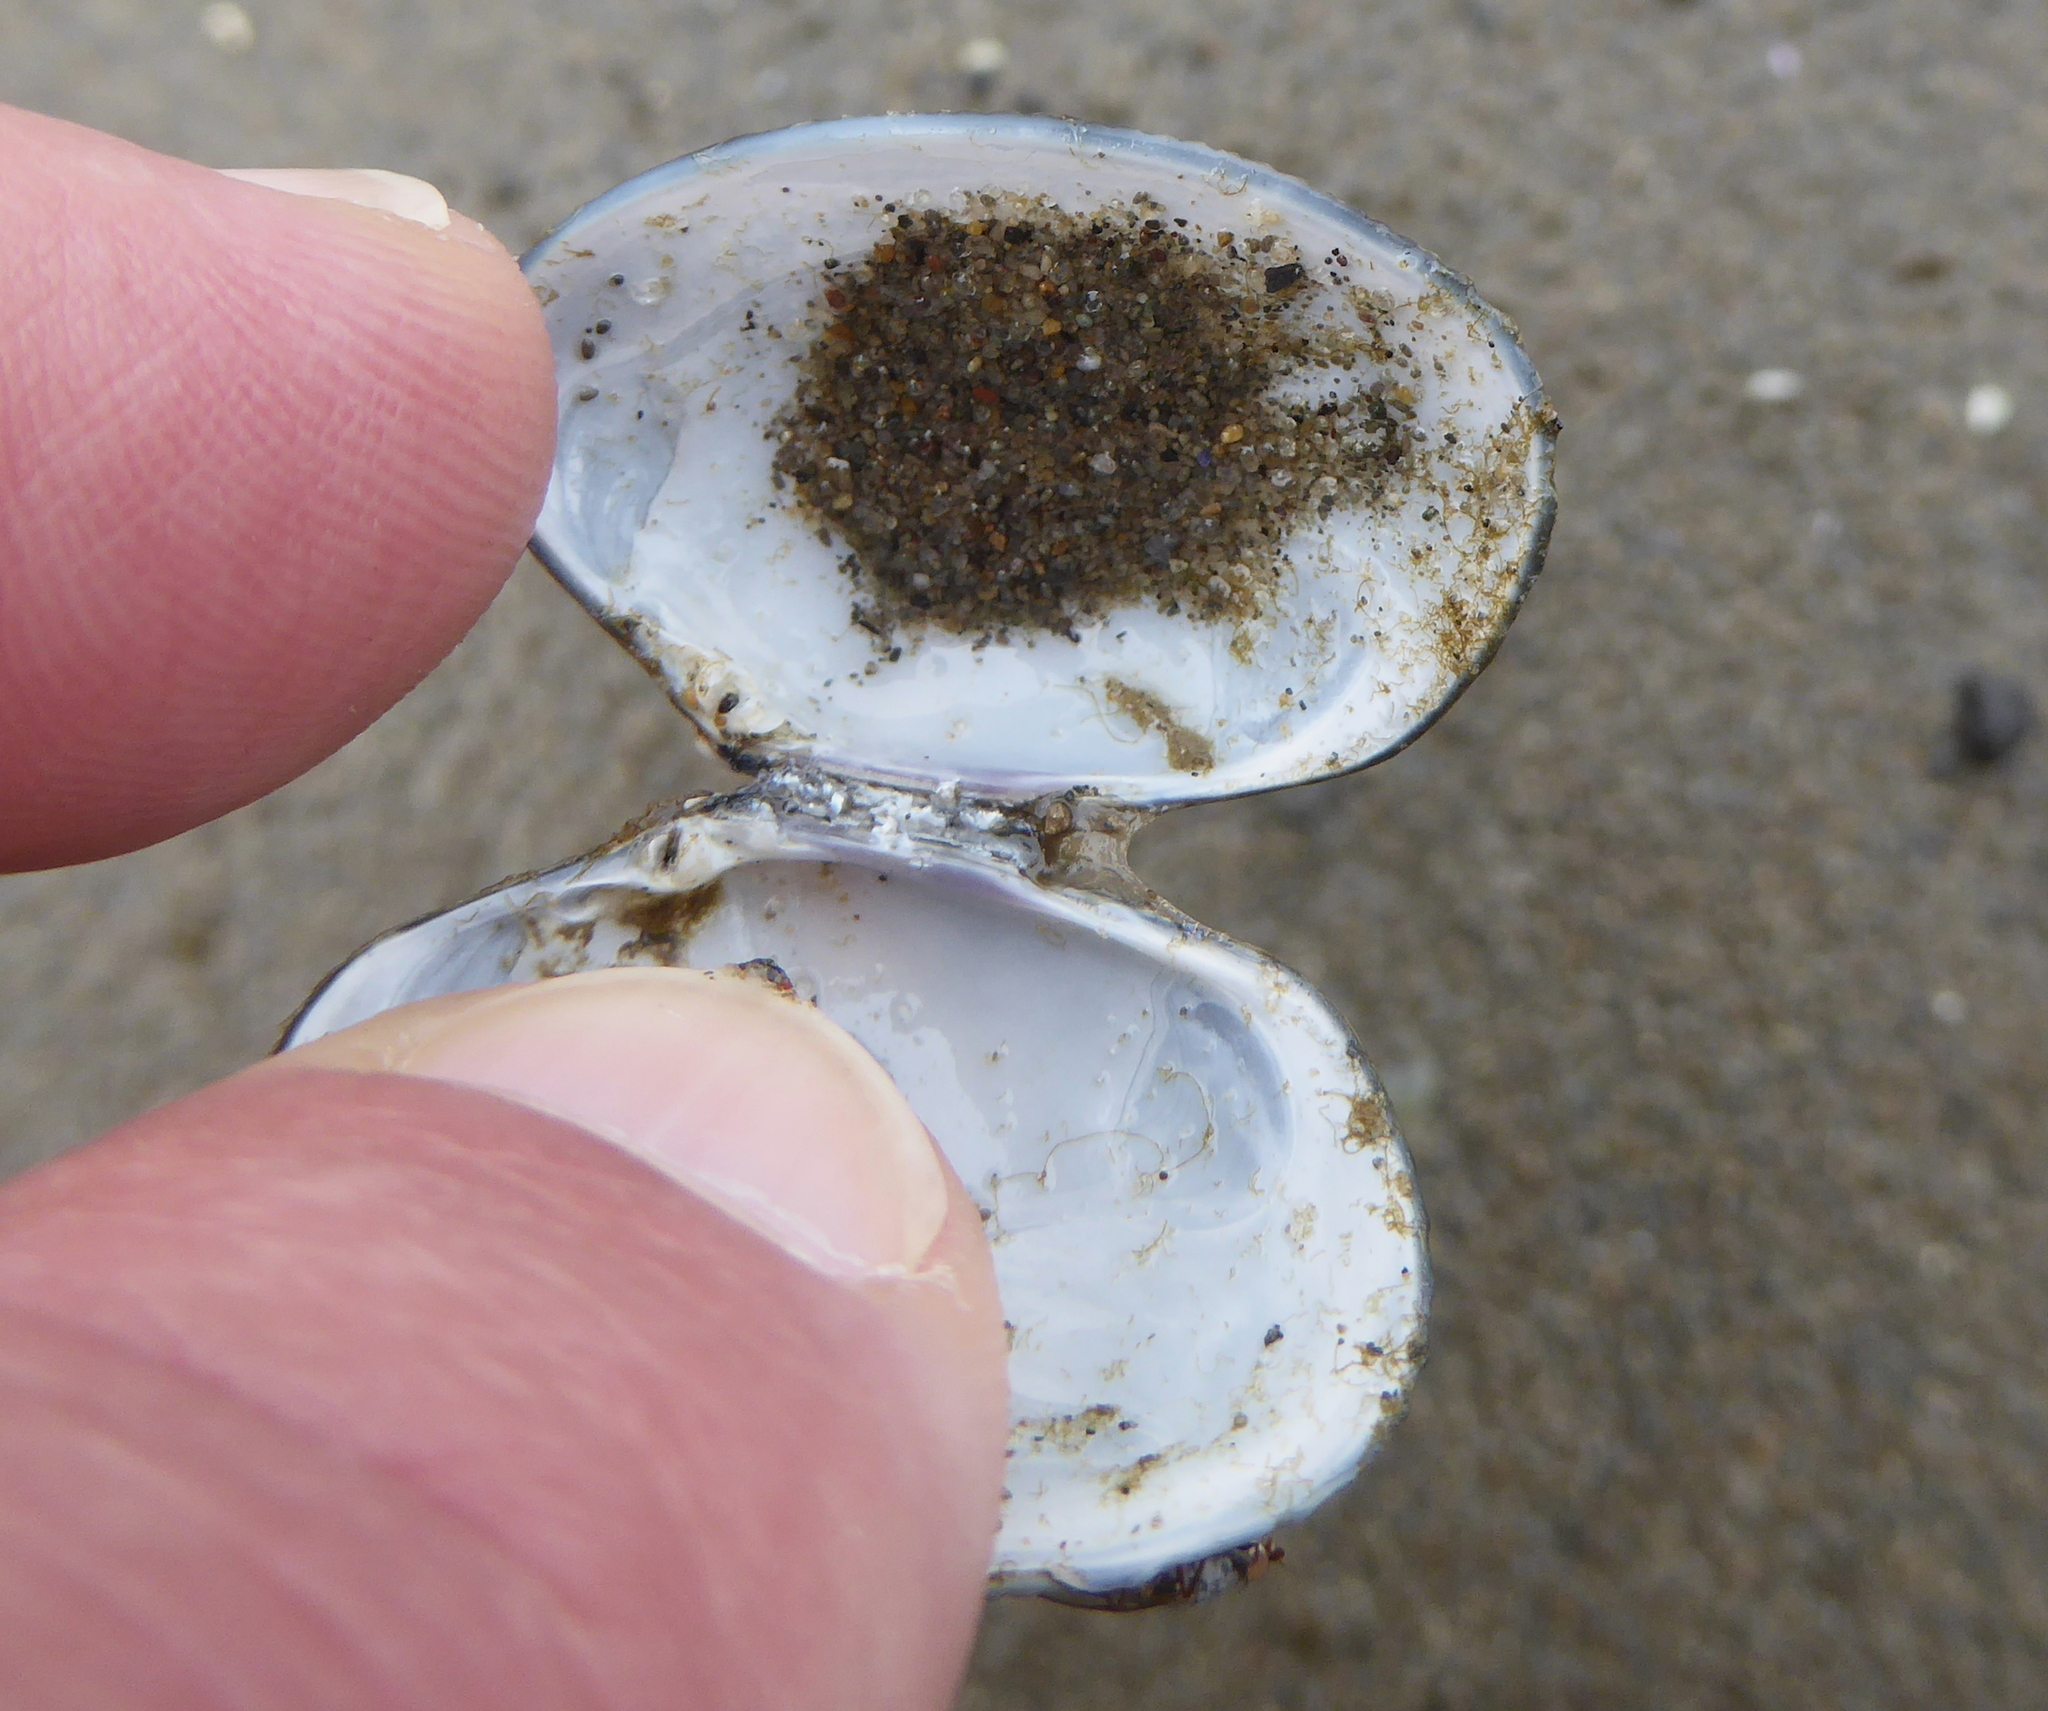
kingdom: Animalia
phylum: Mollusca
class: Bivalvia
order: Venerida
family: Veneridae
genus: Ruditapes
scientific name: Ruditapes philippinarum
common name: Manila clam
